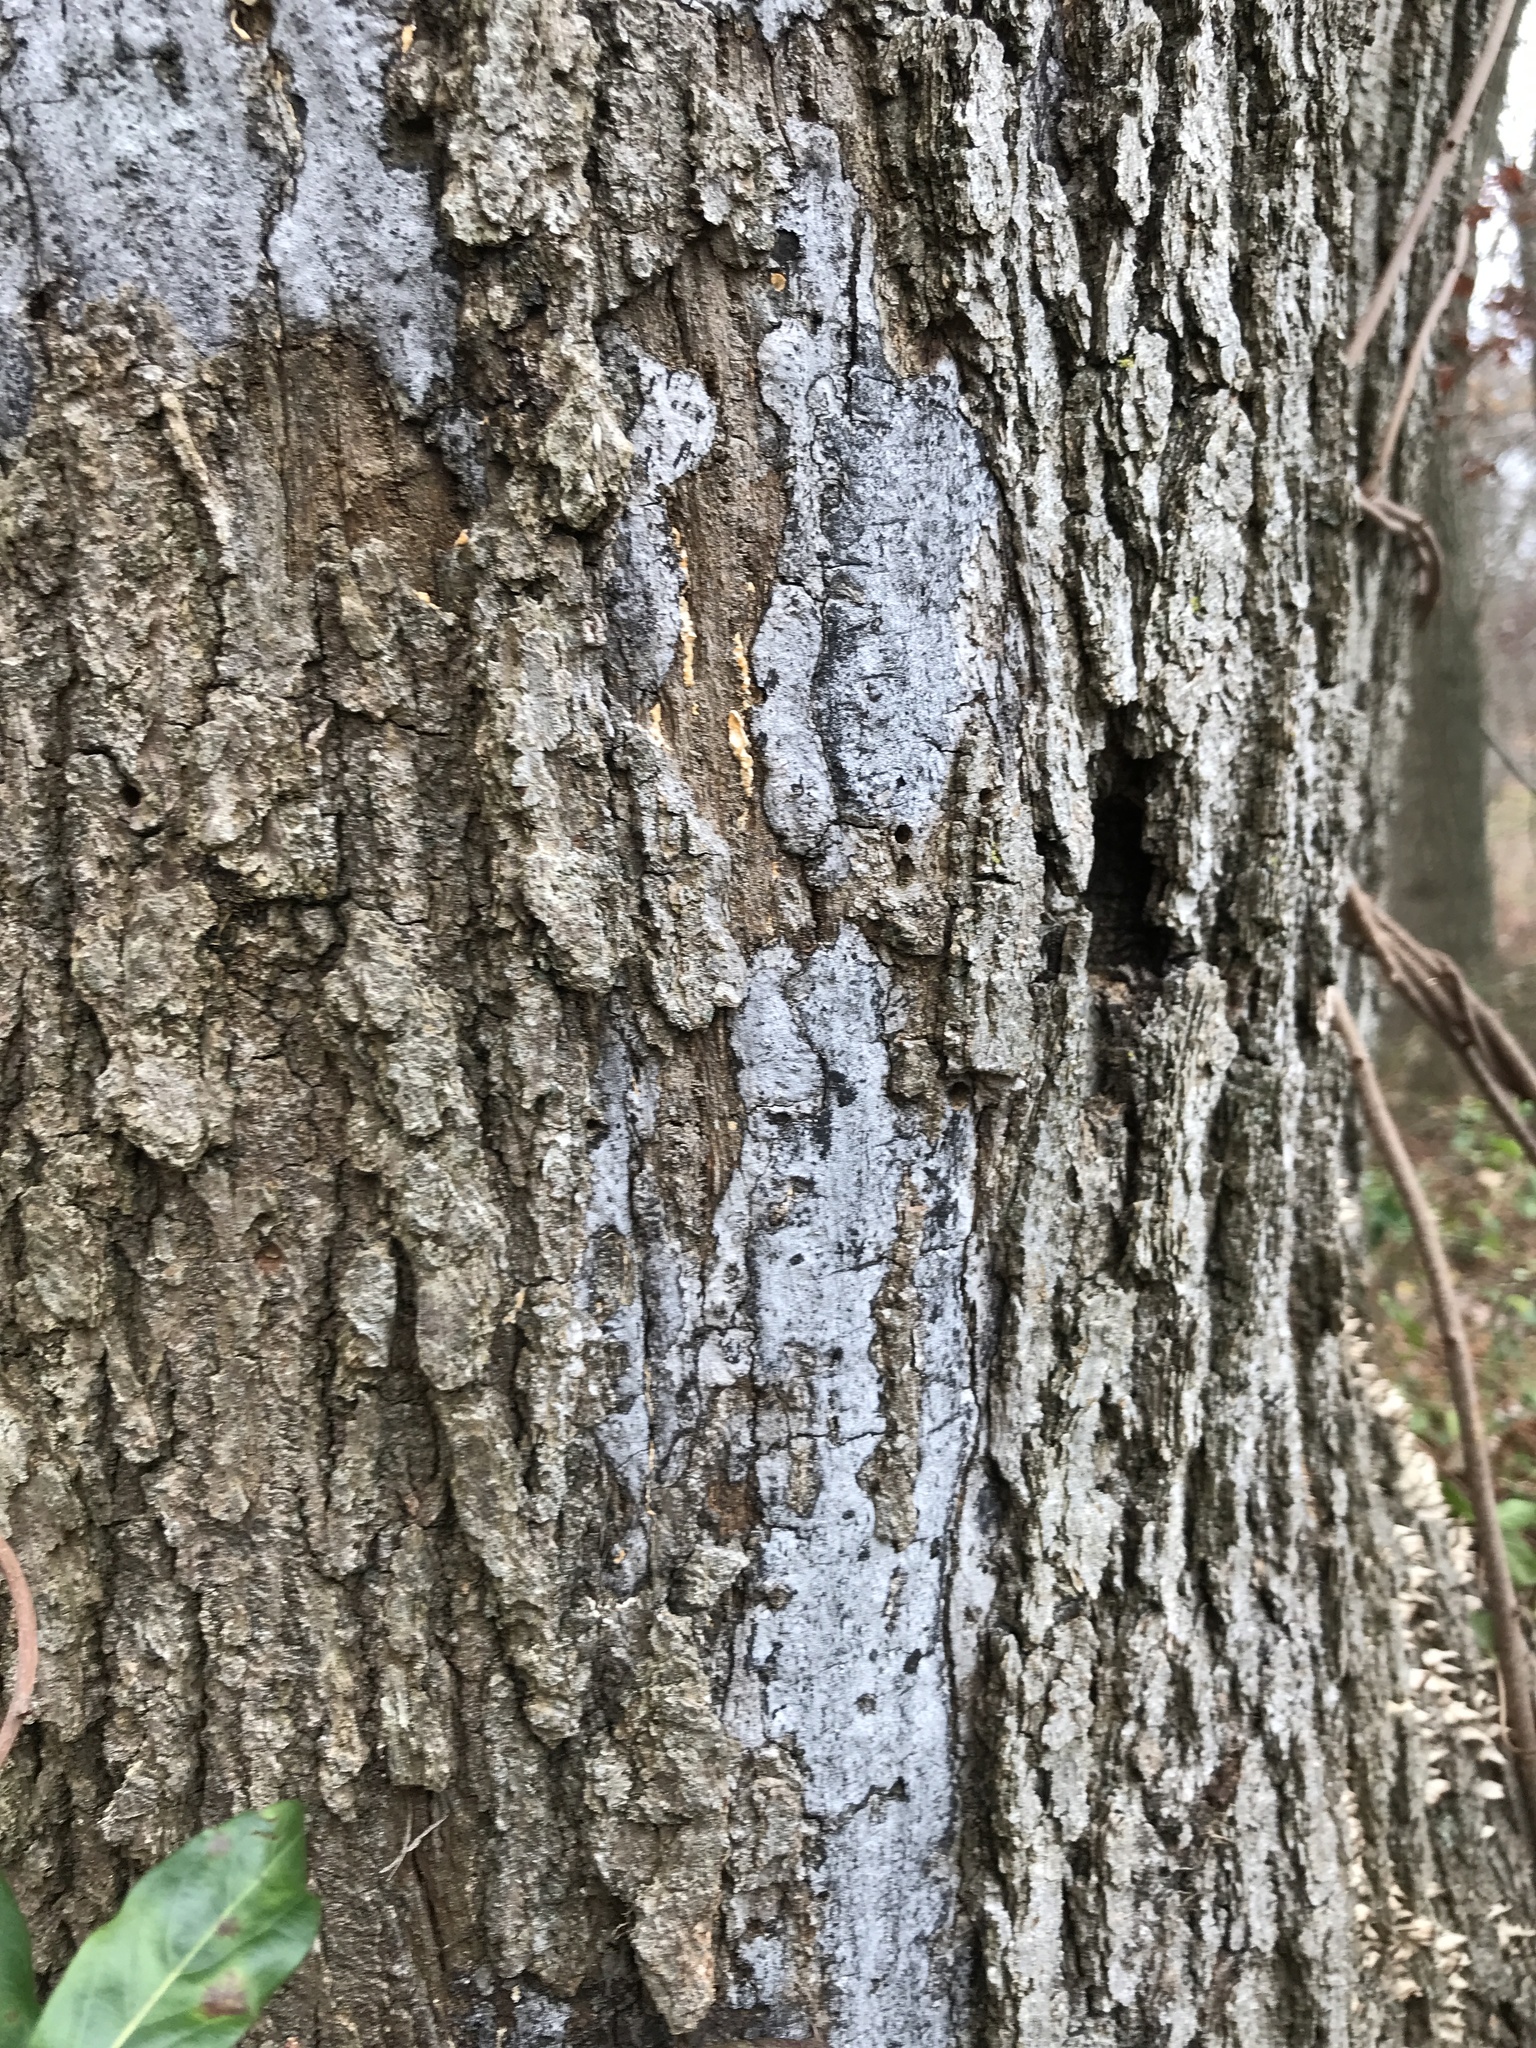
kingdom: Fungi
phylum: Ascomycota
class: Sordariomycetes
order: Xylariales
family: Graphostromataceae
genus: Biscogniauxia
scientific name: Biscogniauxia atropunctata
